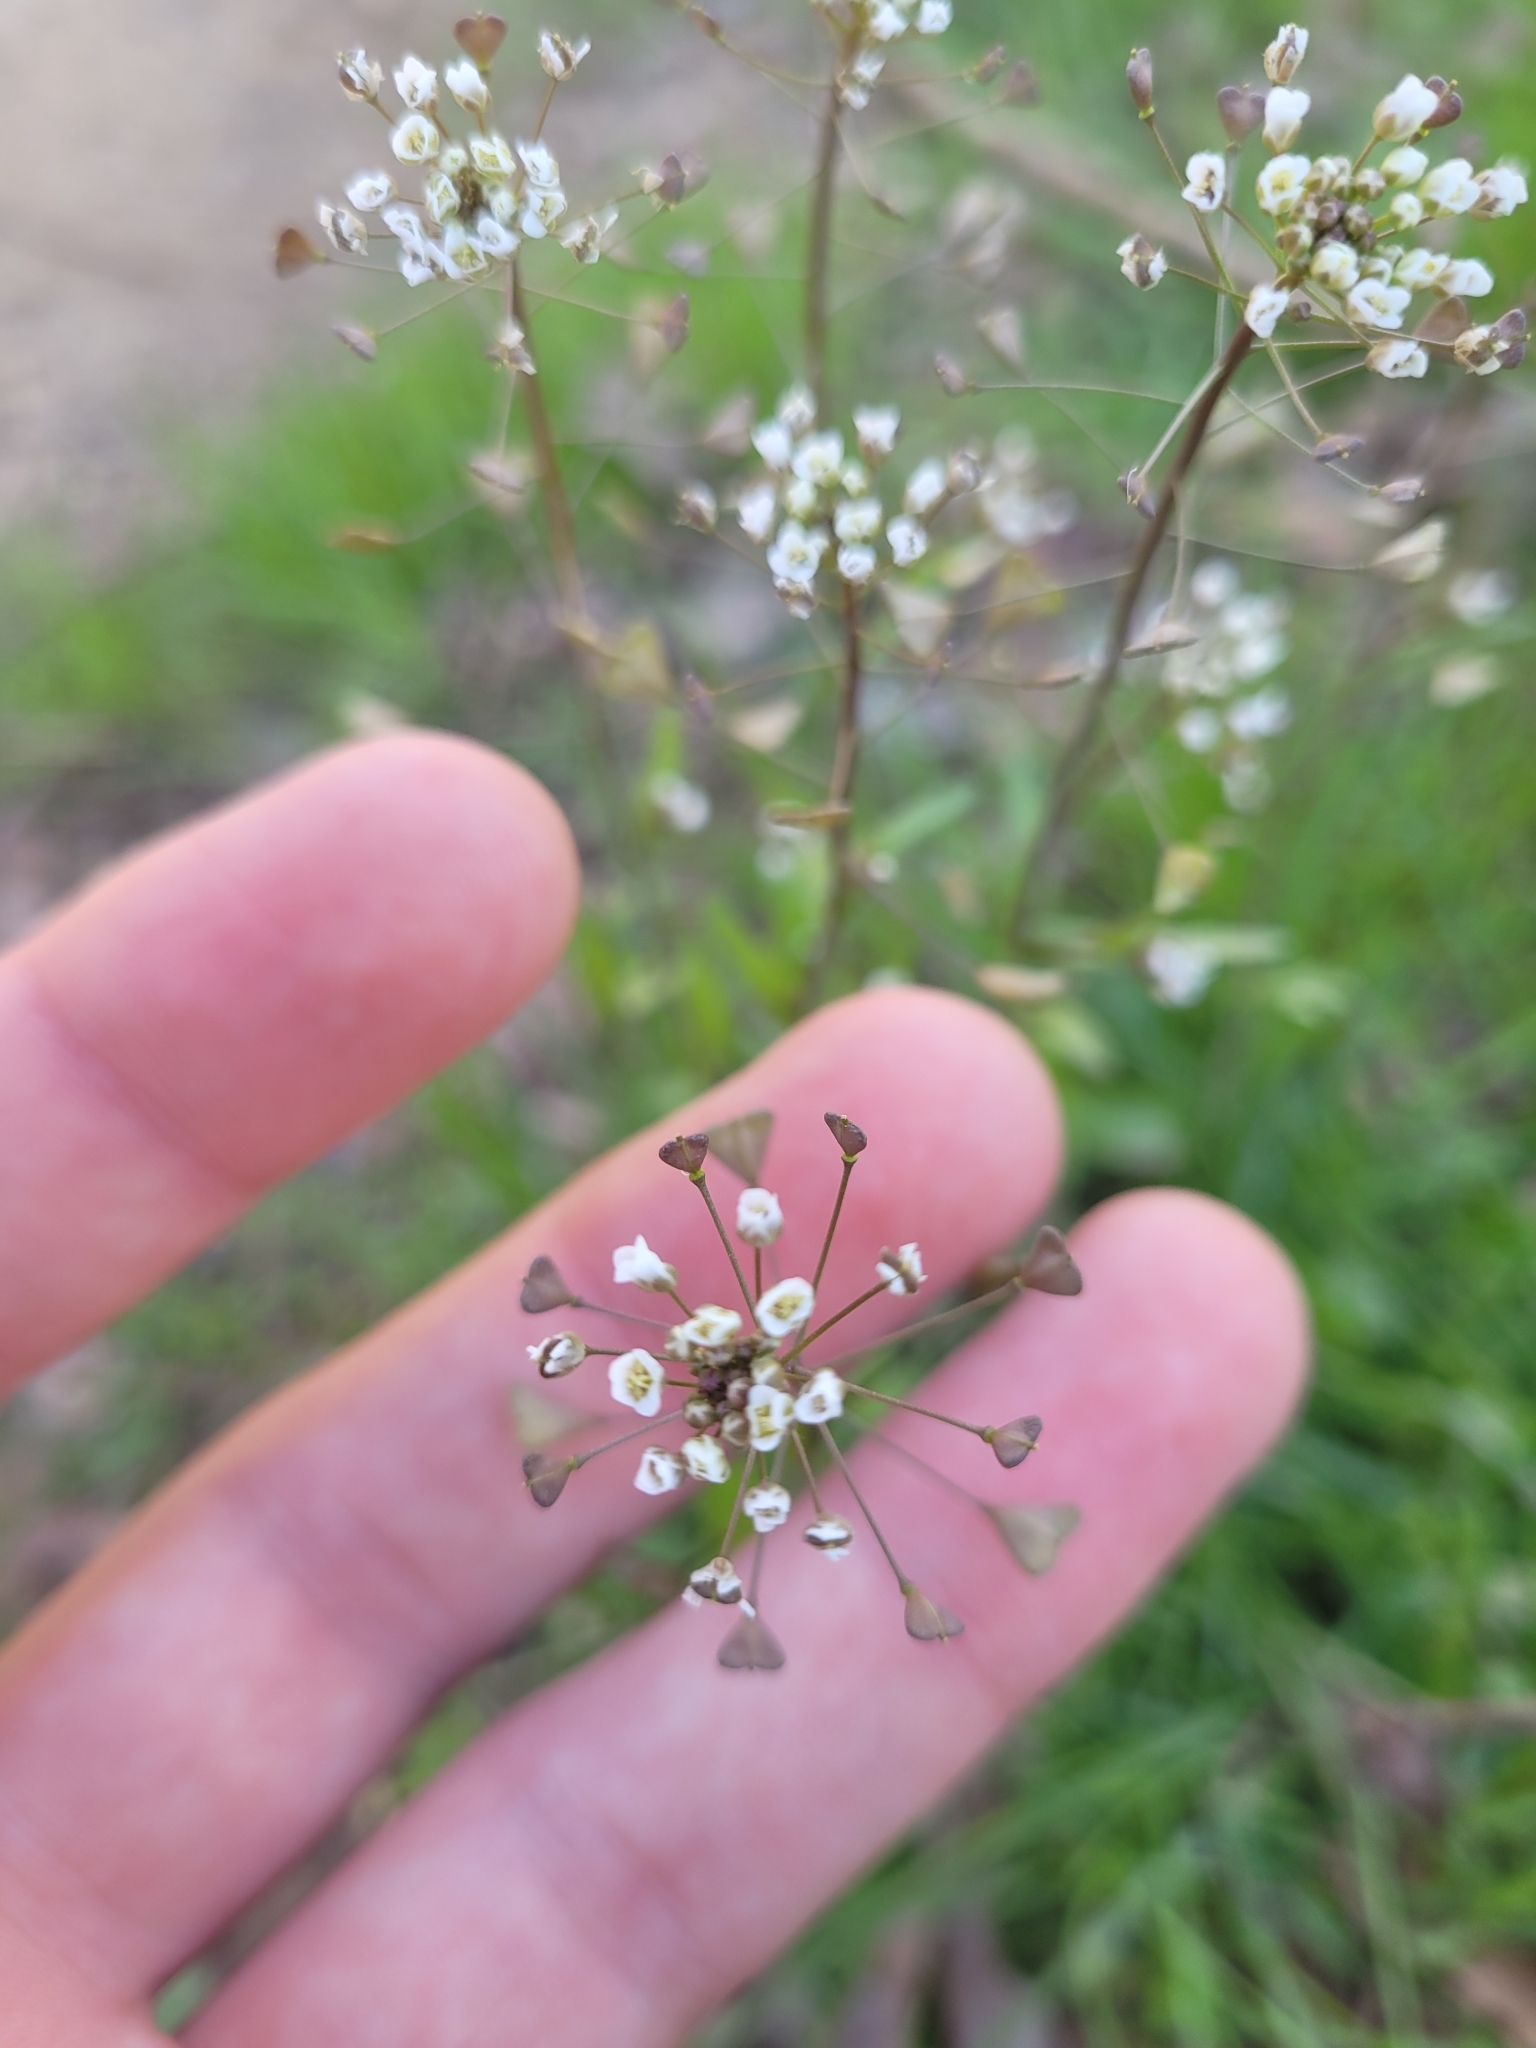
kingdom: Plantae
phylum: Tracheophyta
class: Magnoliopsida
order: Brassicales
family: Brassicaceae
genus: Capsella
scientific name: Capsella bursa-pastoris
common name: Shepherd's purse
